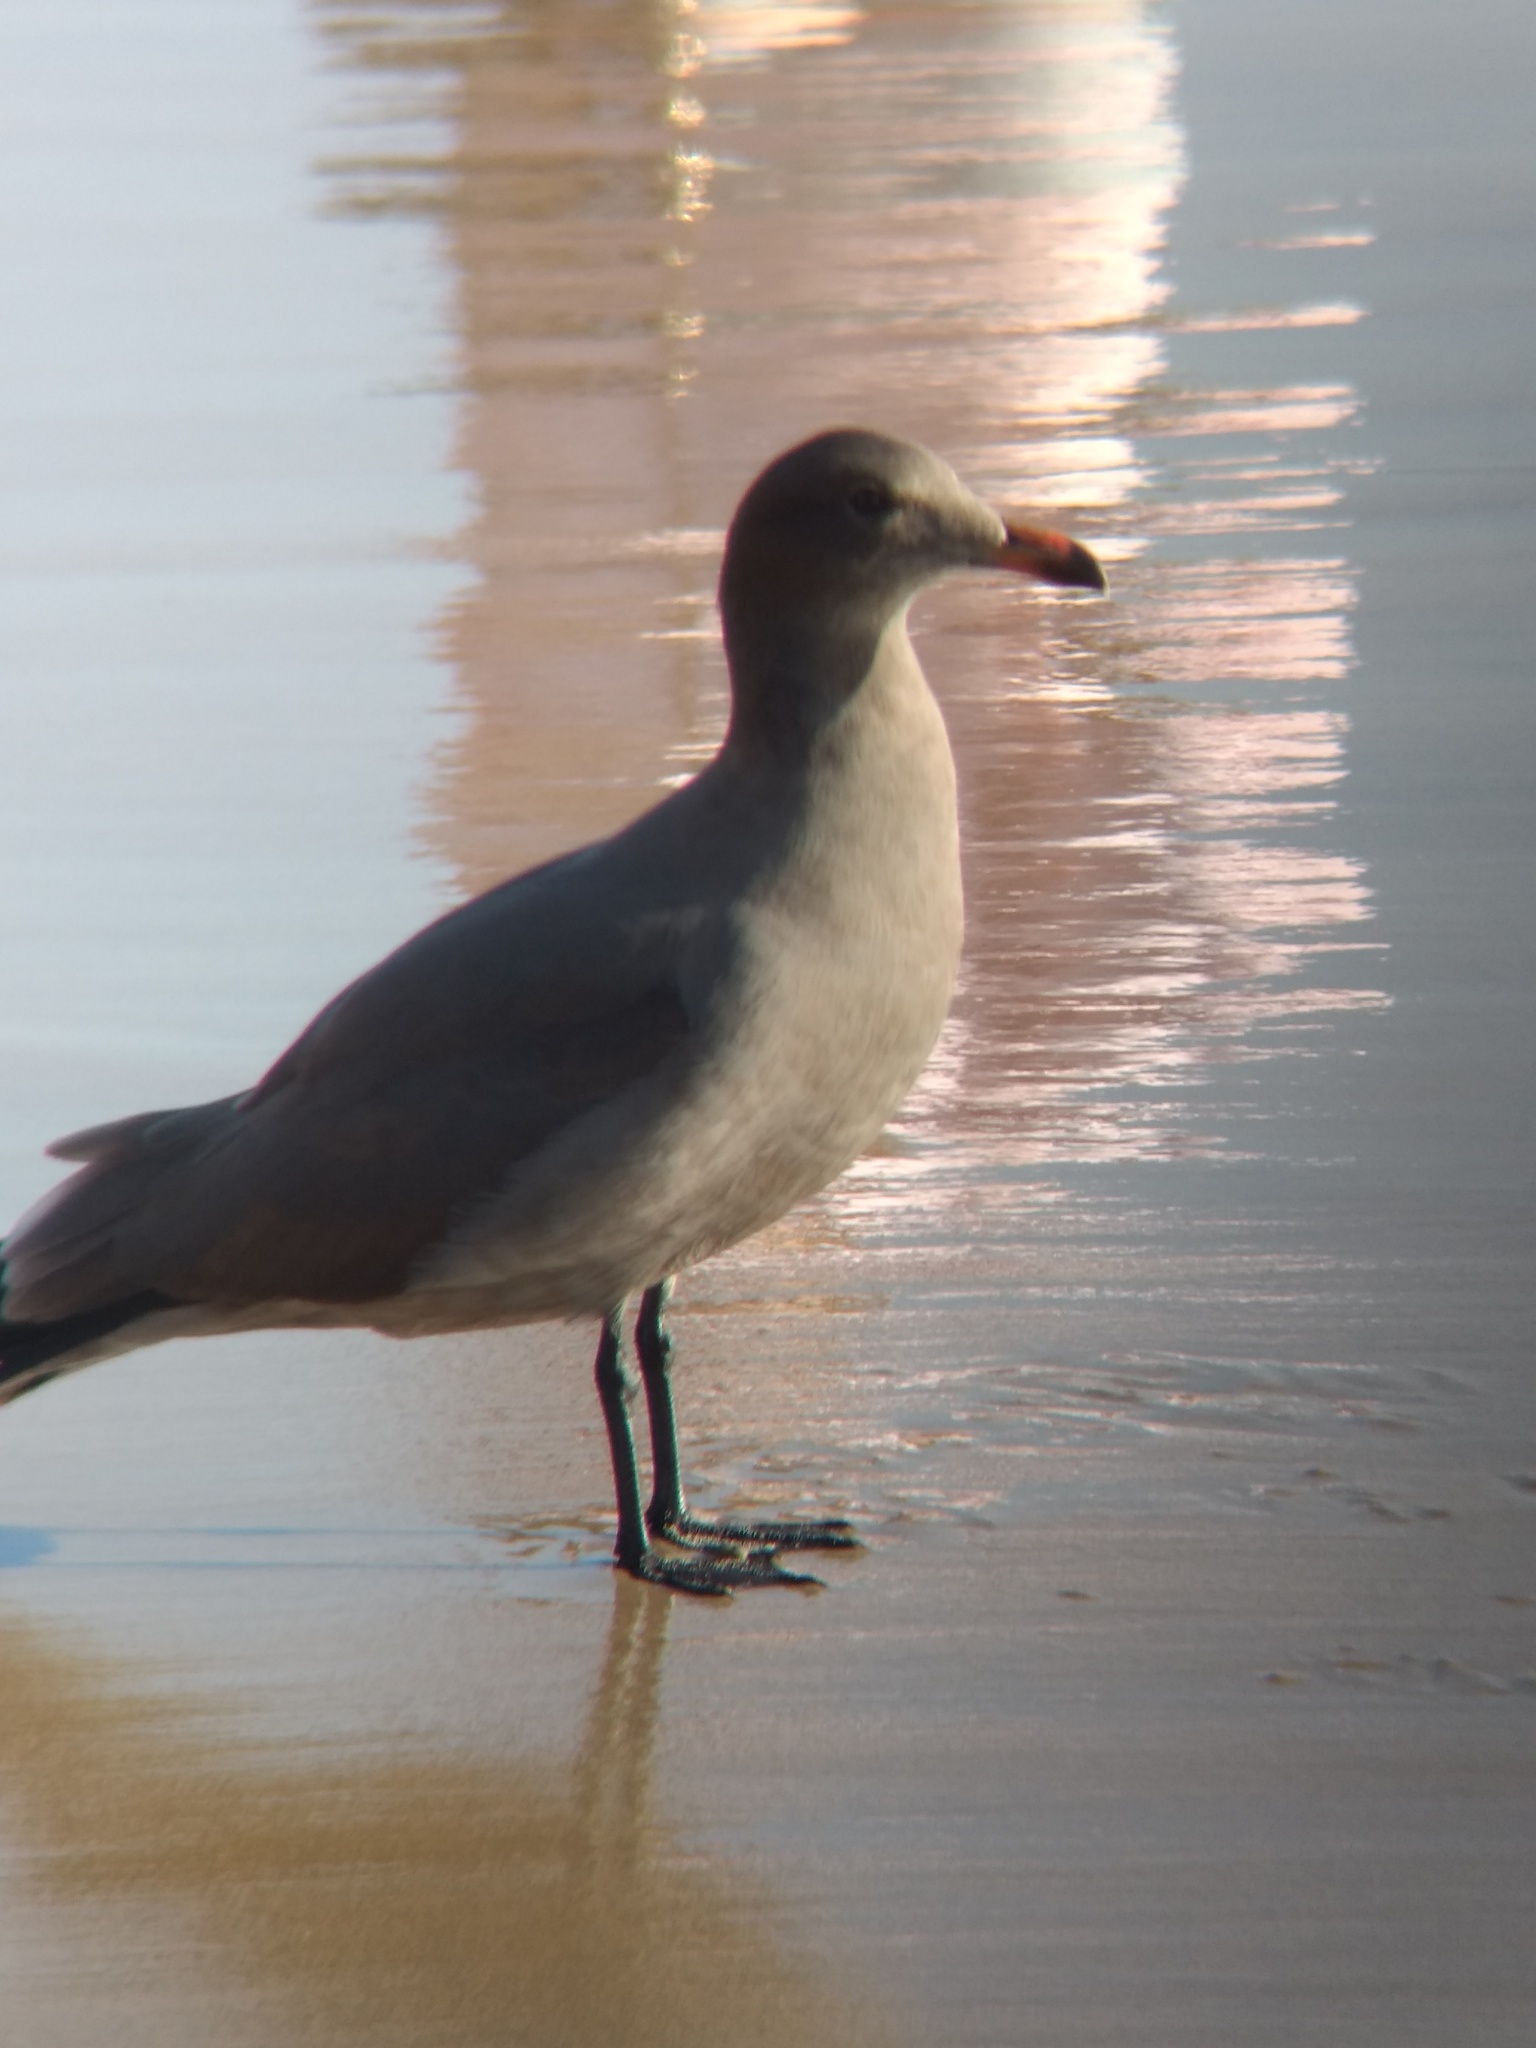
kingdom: Animalia
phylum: Chordata
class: Aves
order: Charadriiformes
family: Laridae
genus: Larus
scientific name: Larus heermanni
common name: Heermann's gull
